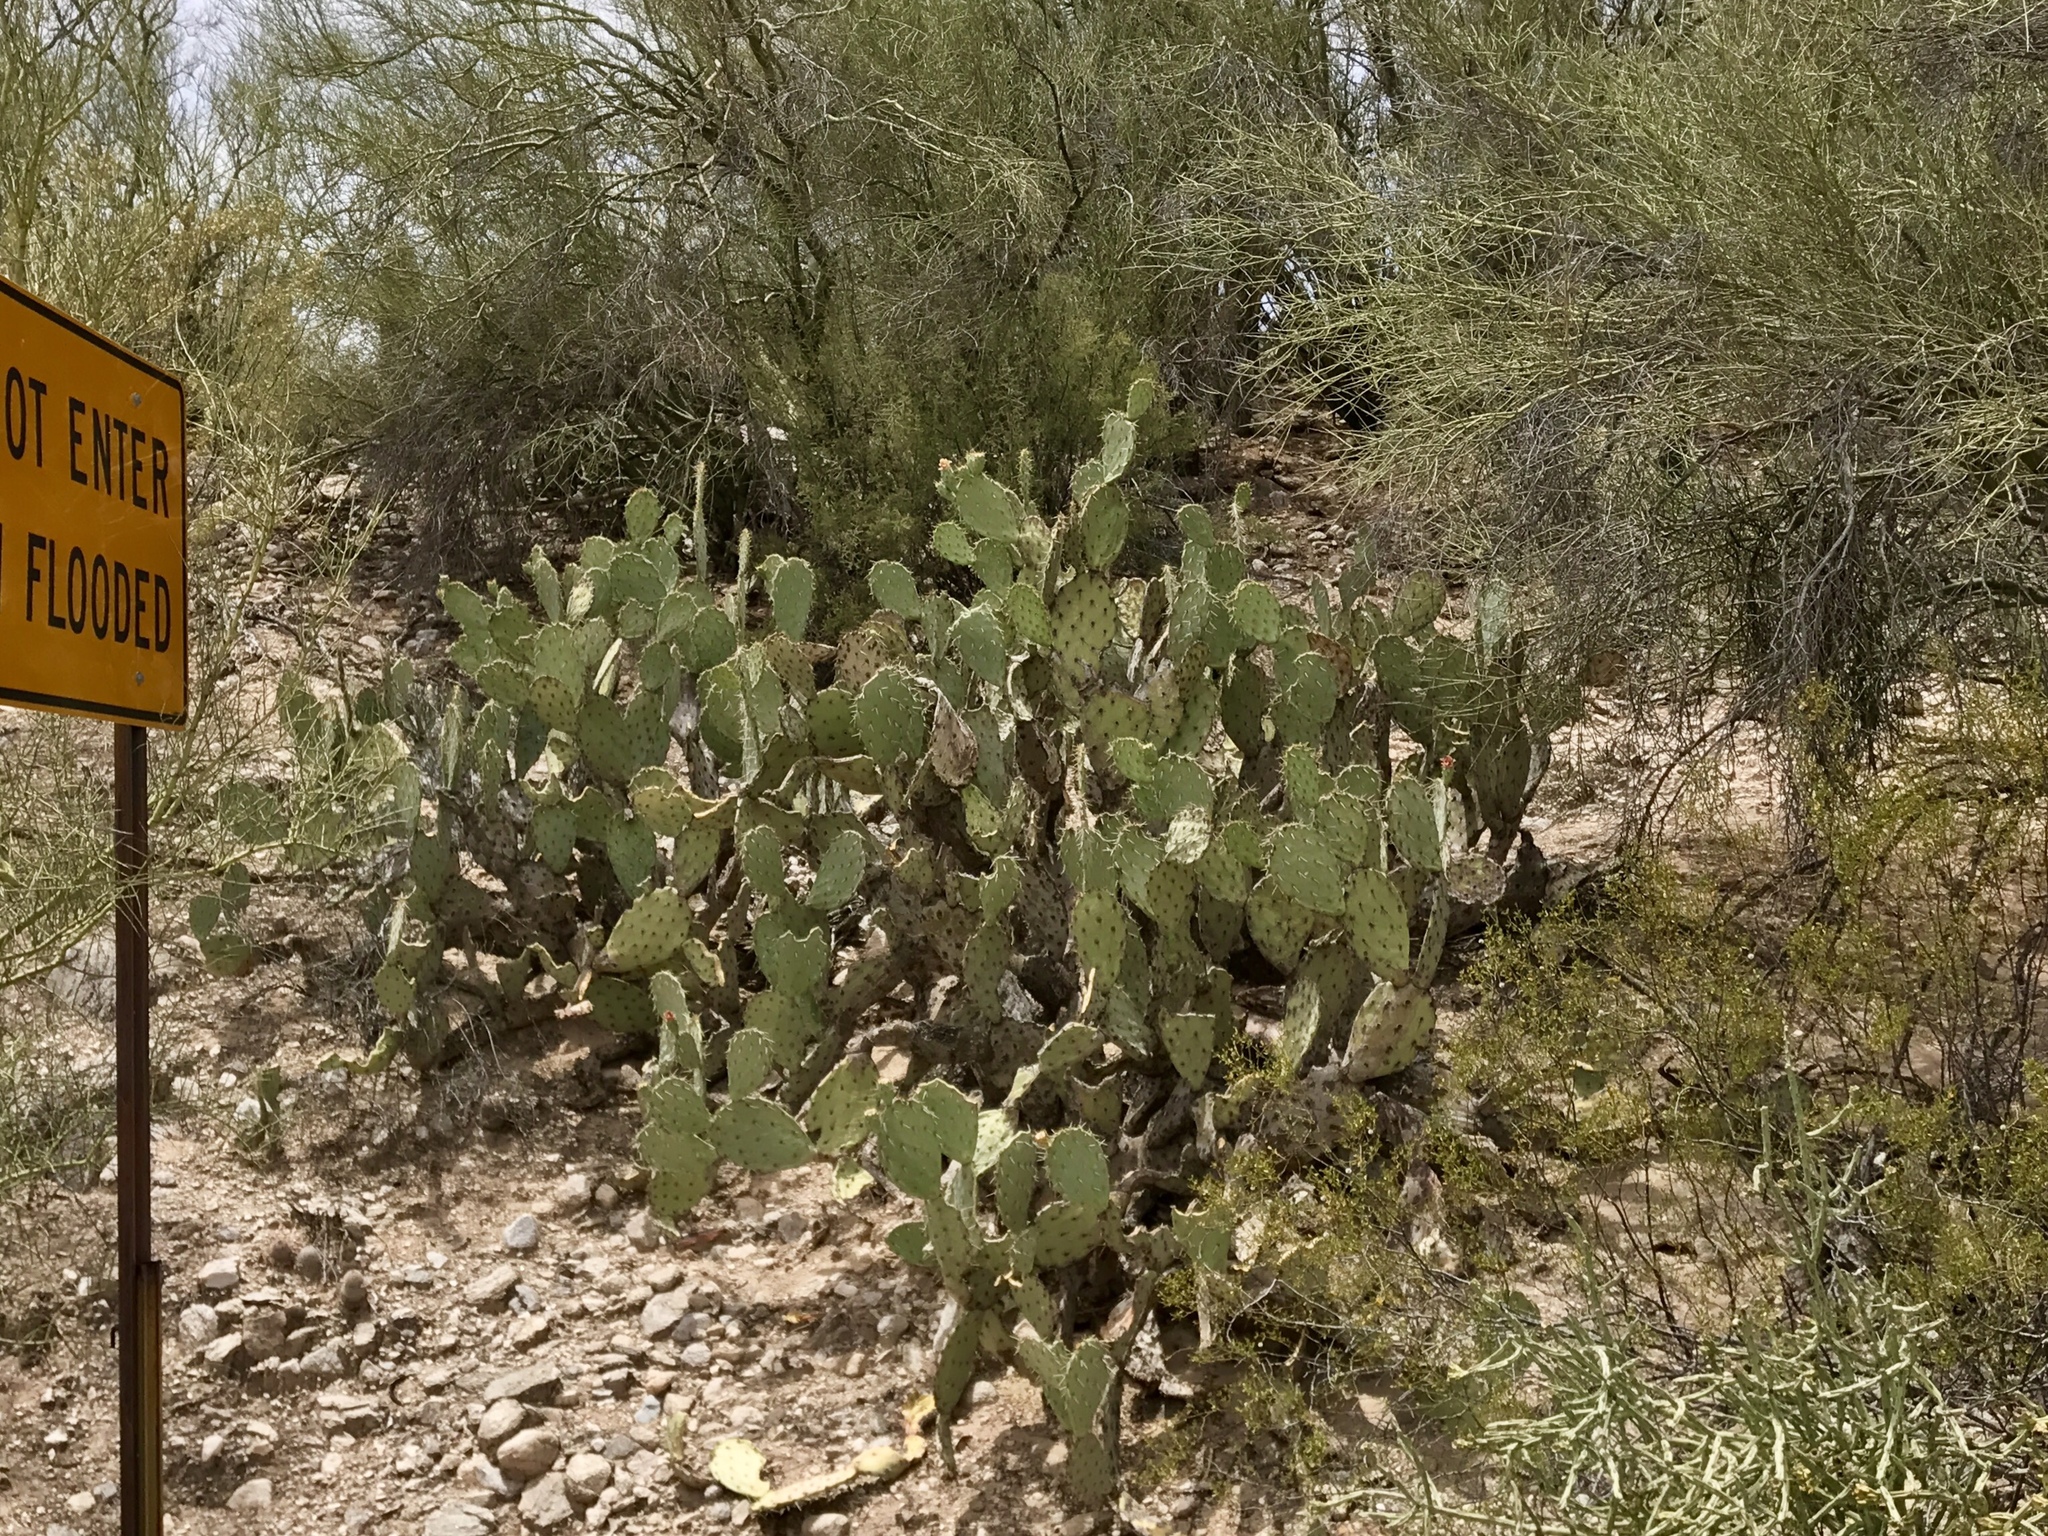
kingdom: Plantae
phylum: Tracheophyta
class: Magnoliopsida
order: Caryophyllales
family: Cactaceae
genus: Opuntia
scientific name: Opuntia engelmannii
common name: Cactus-apple
